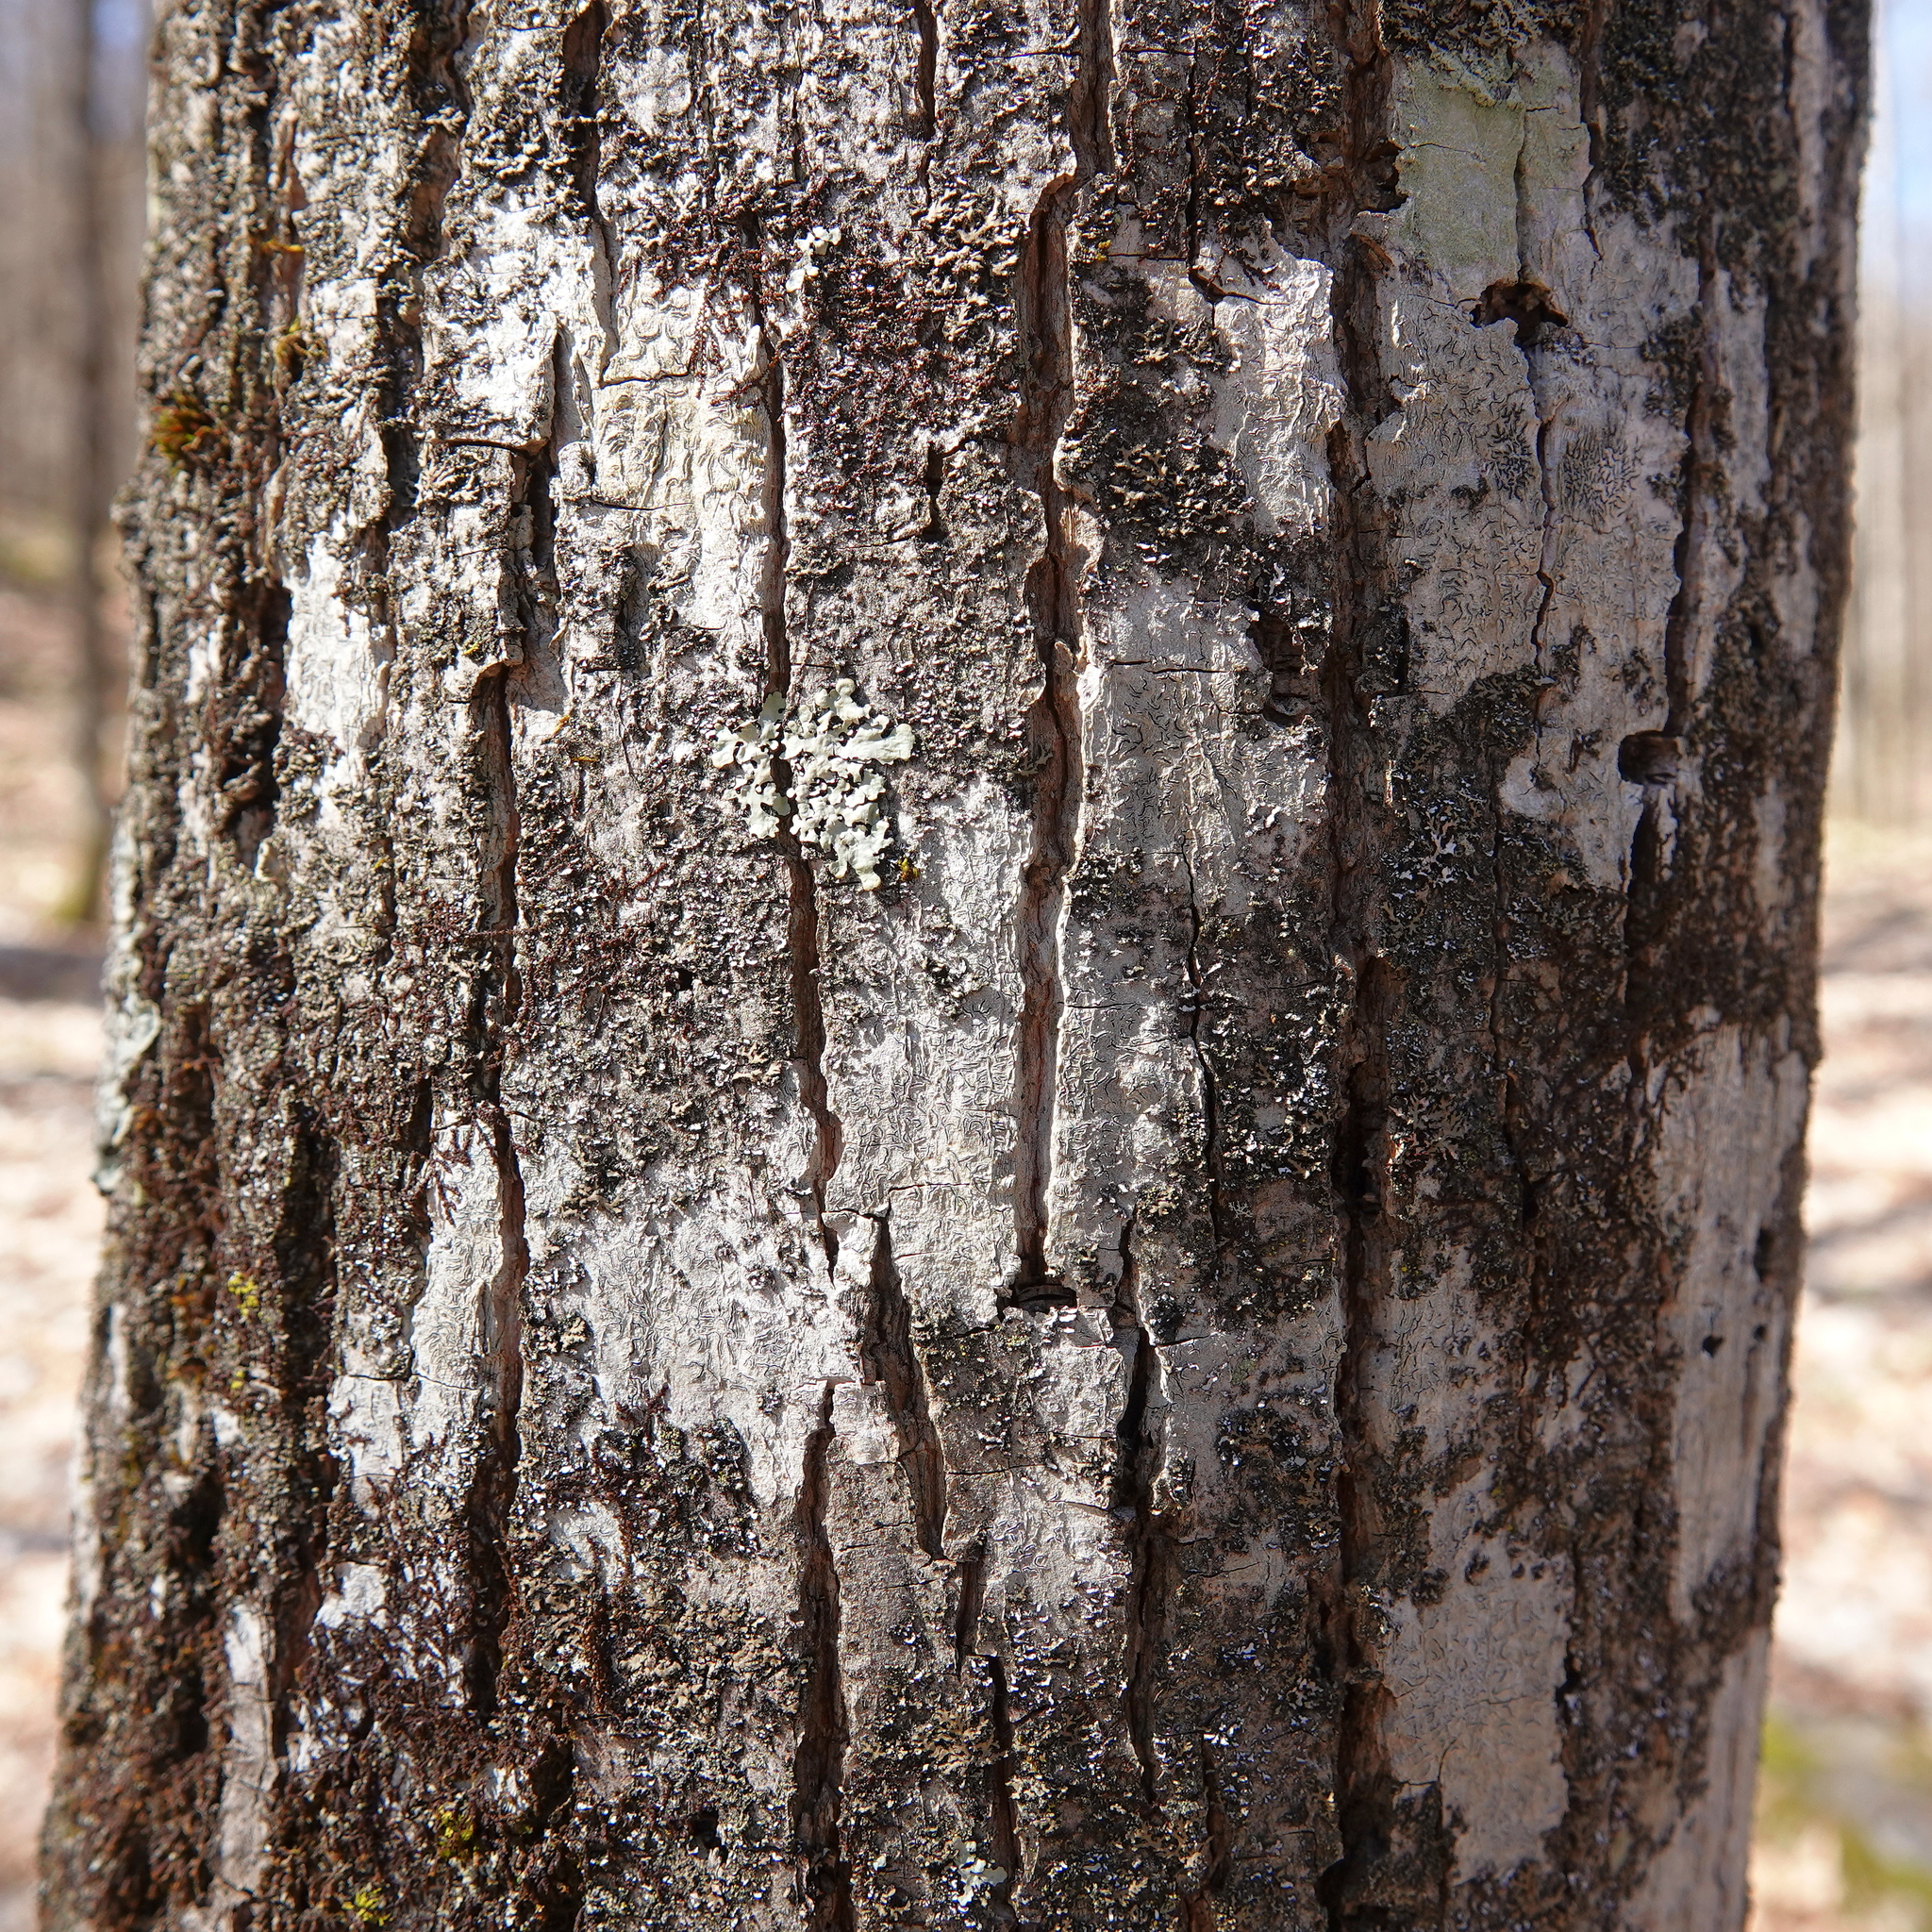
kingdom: Fungi
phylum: Ascomycota
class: Lecanoromycetes
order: Ostropales
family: Graphidaceae
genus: Graphis
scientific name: Graphis scripta
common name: Script lichen
